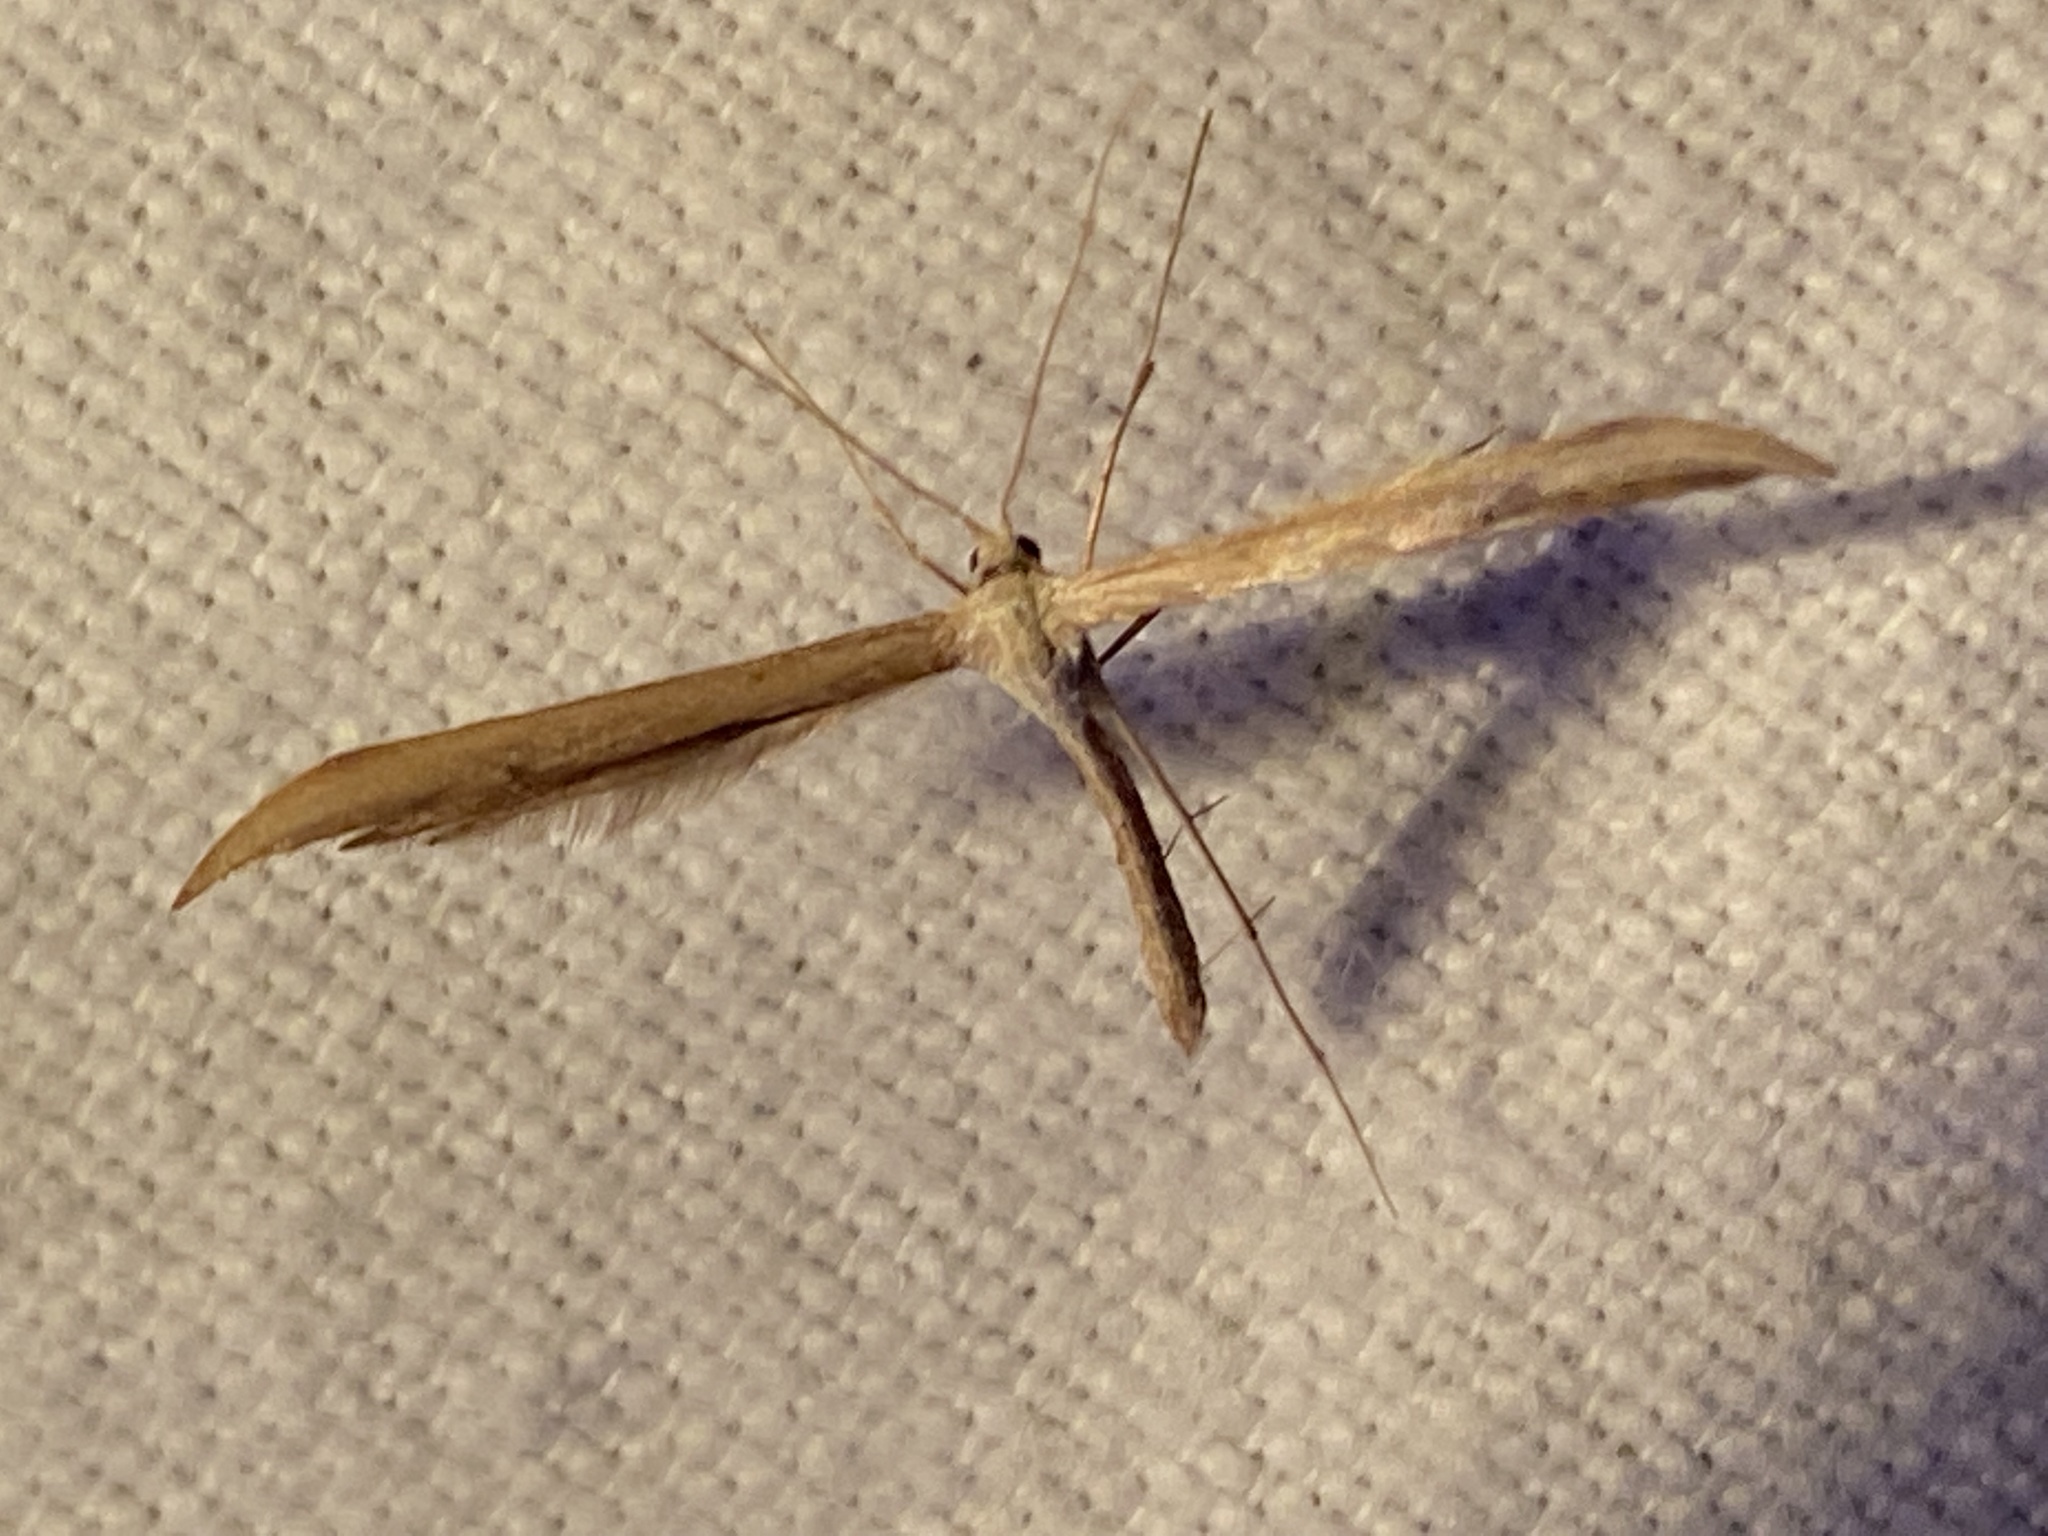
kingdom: Animalia
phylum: Arthropoda
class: Insecta
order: Lepidoptera
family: Pterophoridae
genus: Emmelina
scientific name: Emmelina monodactyla
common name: Common plume
